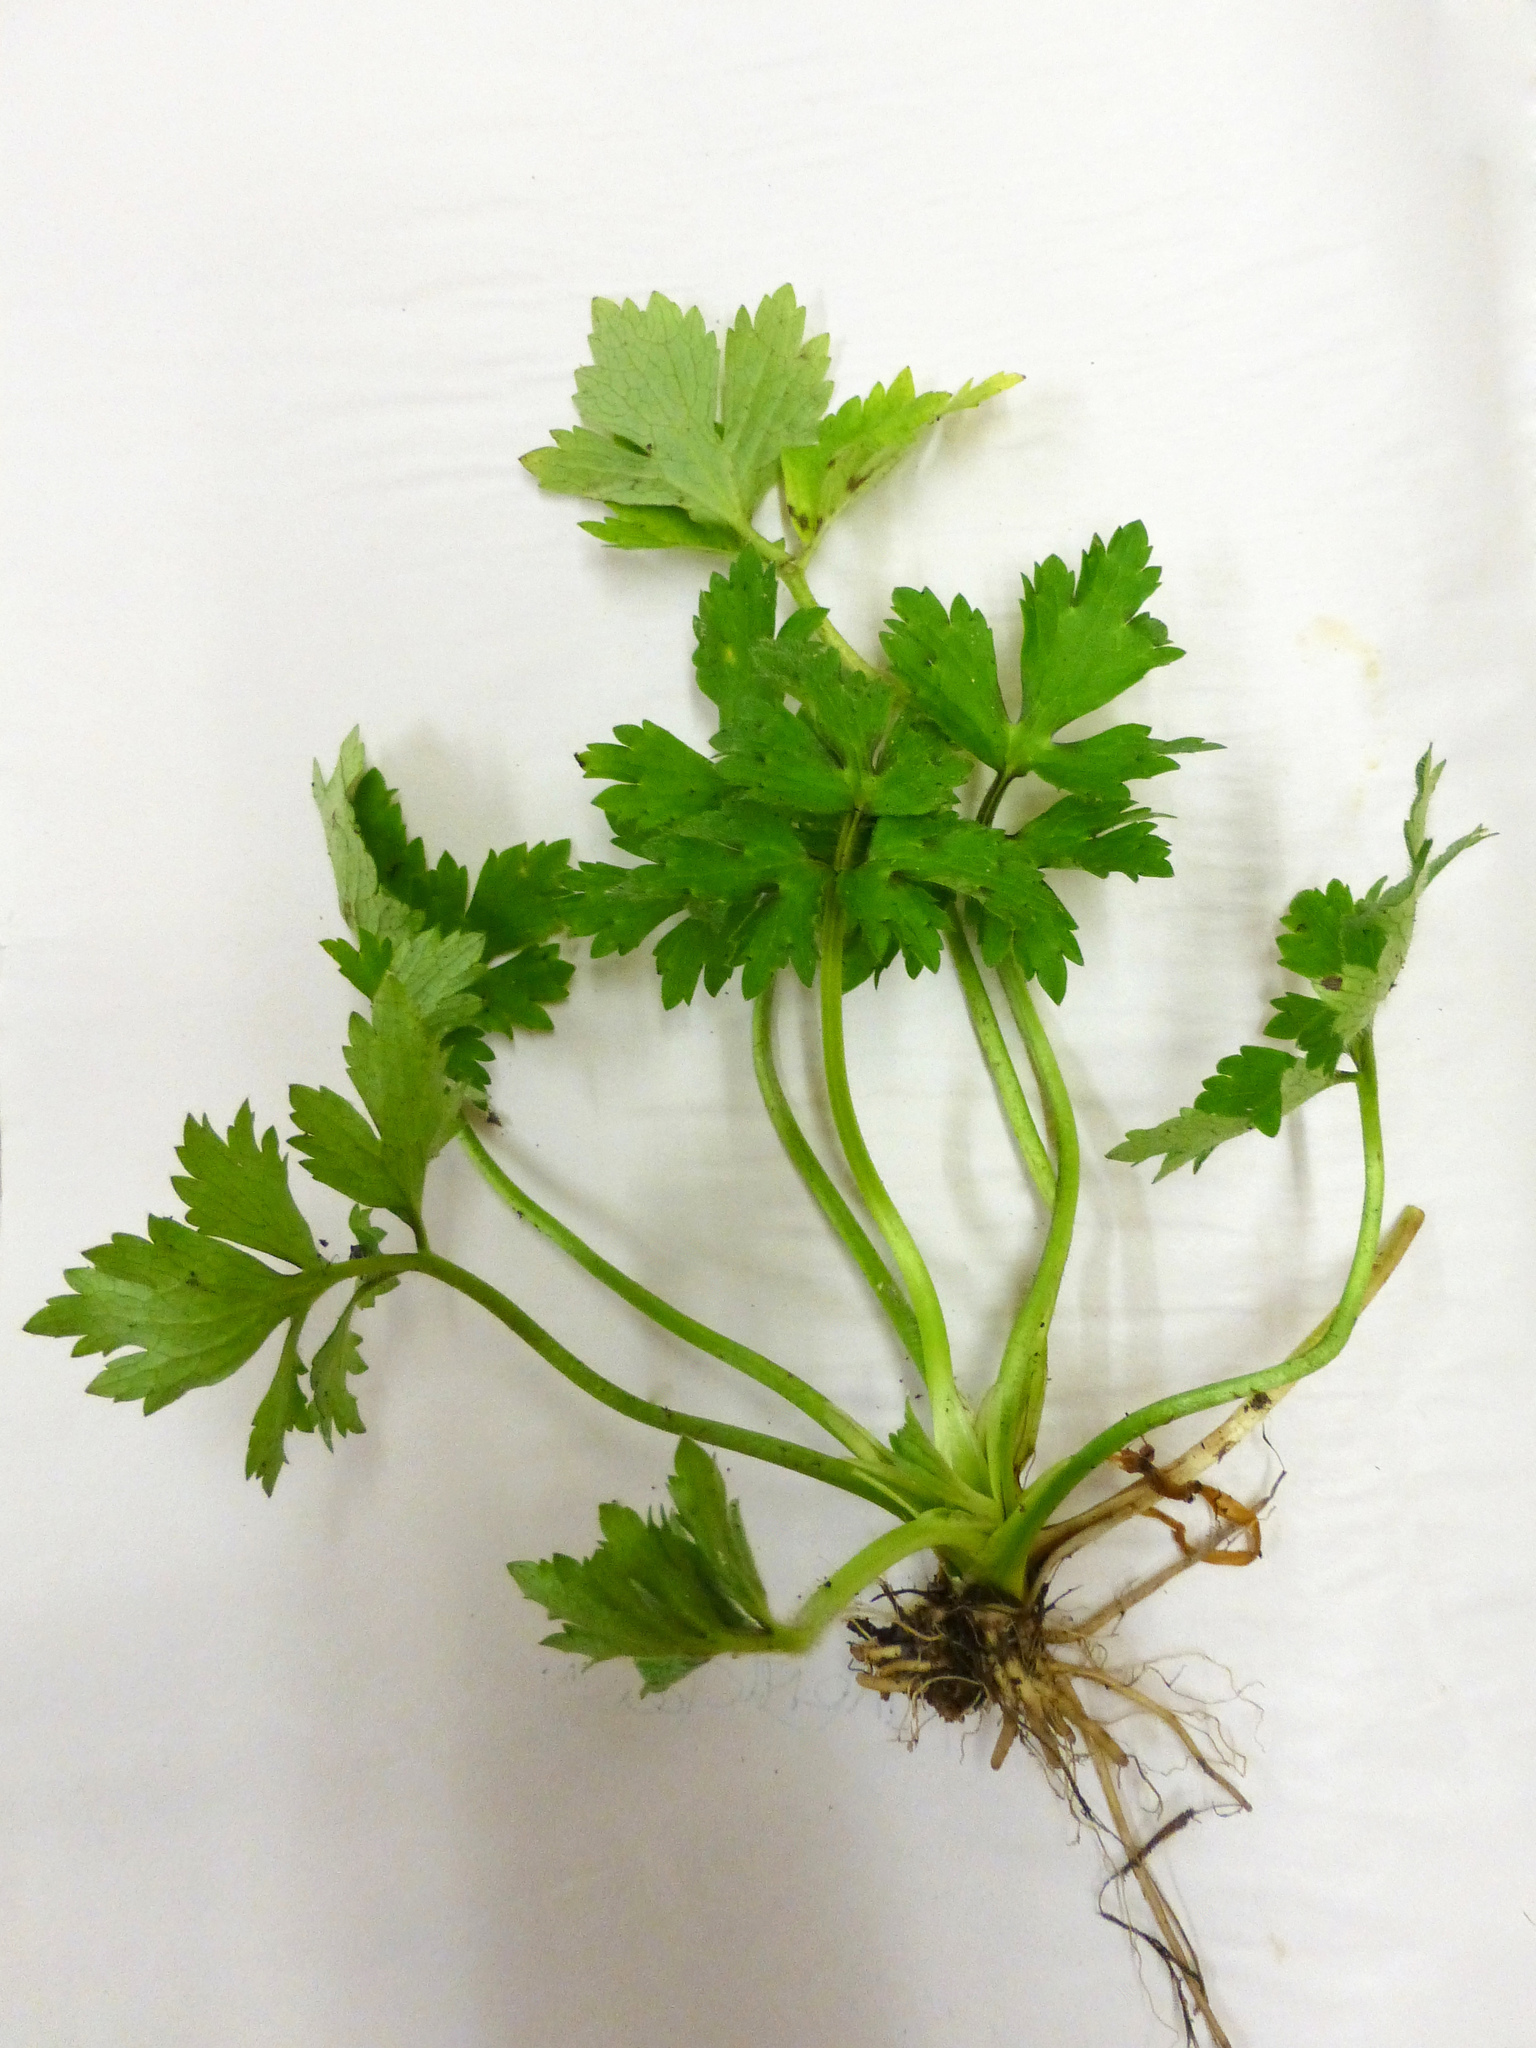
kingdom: Plantae
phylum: Tracheophyta
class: Magnoliopsida
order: Ranunculales
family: Ranunculaceae
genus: Ranunculus
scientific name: Ranunculus repens
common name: Creeping buttercup
